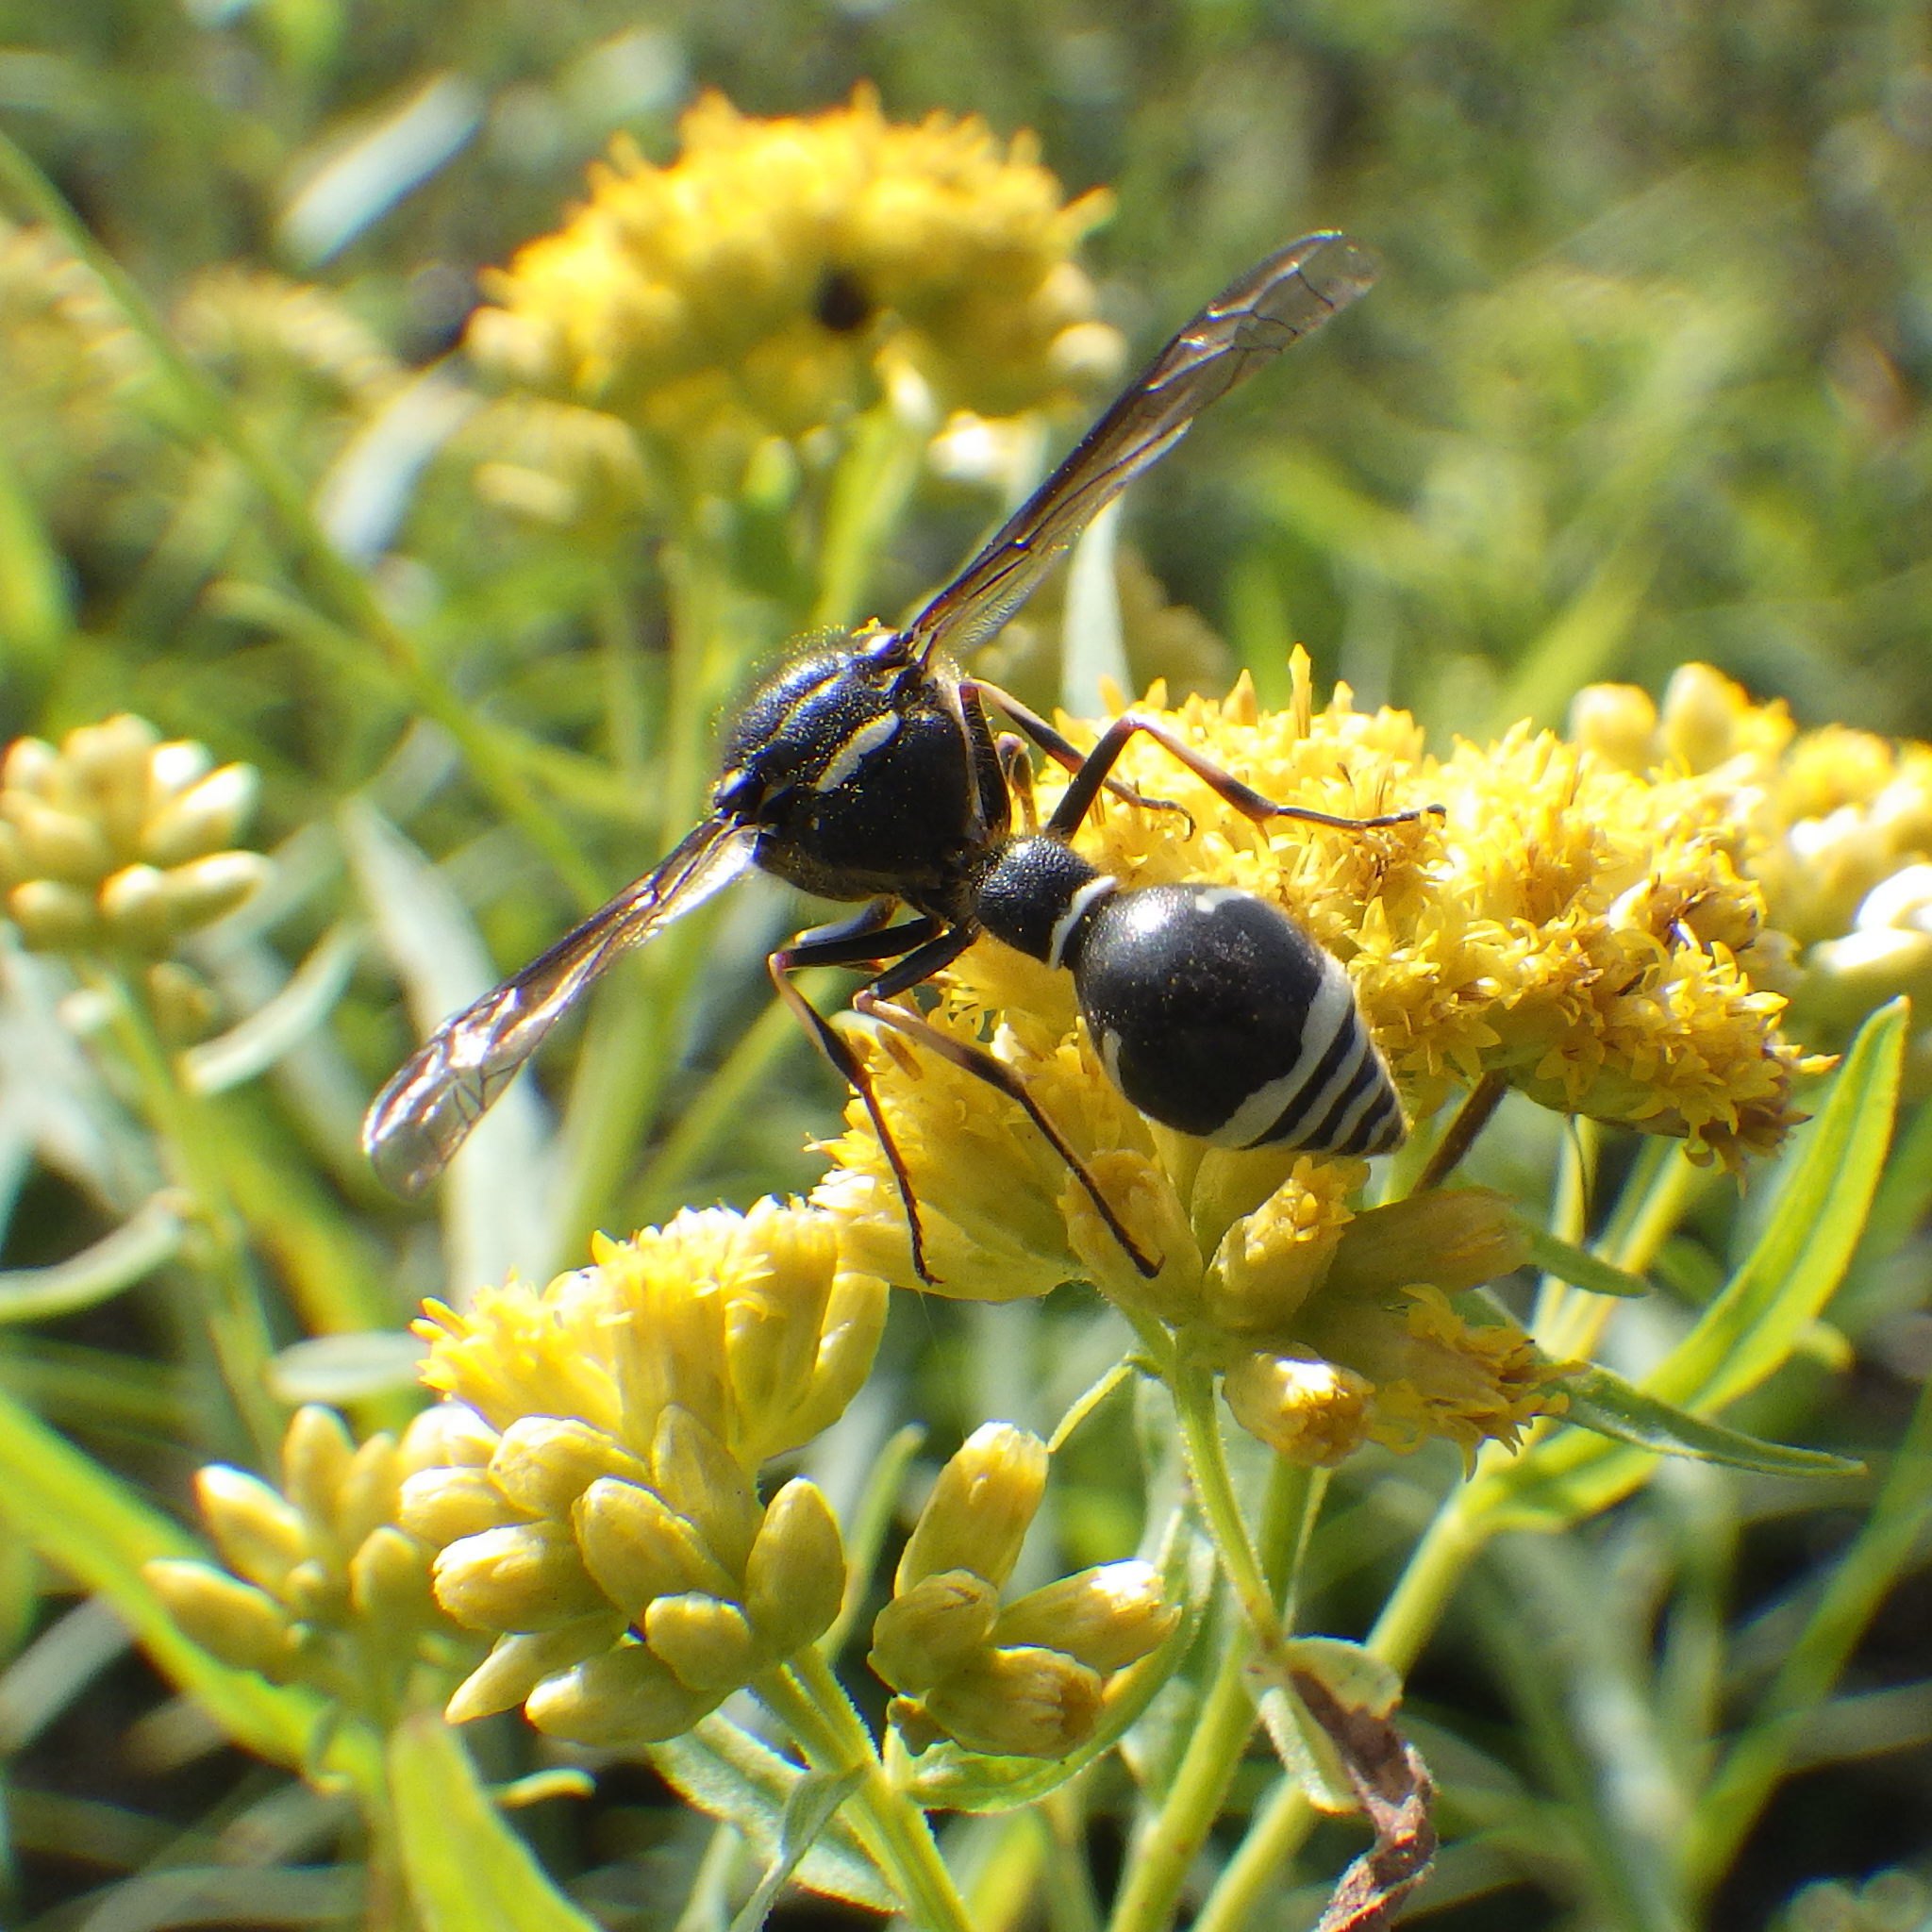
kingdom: Animalia
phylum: Arthropoda
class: Insecta
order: Hymenoptera
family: Vespidae
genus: Eumenes
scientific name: Eumenes crucifera
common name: Cross potter wasp
